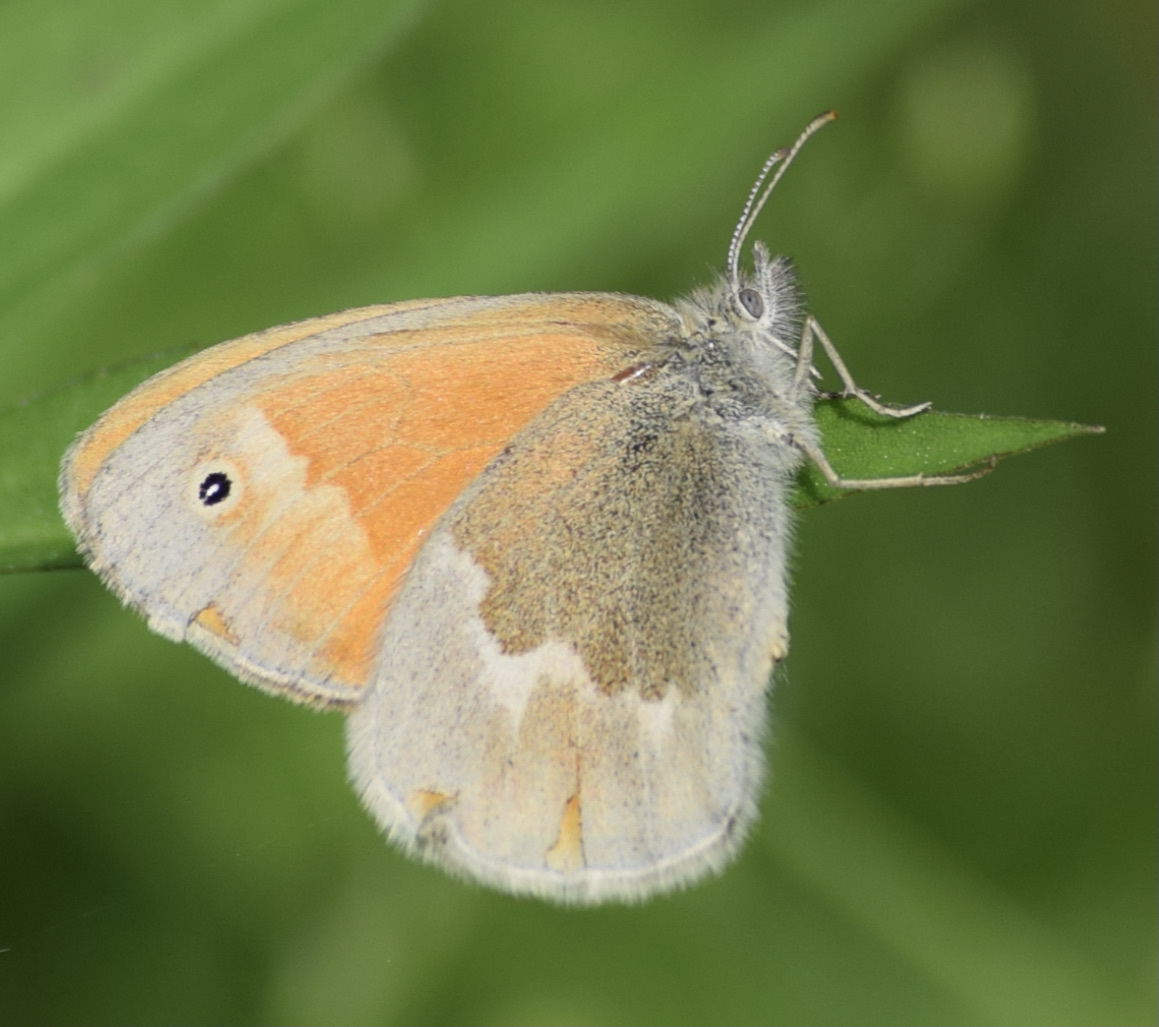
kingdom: Animalia
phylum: Arthropoda
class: Insecta
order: Lepidoptera
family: Nymphalidae
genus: Coenonympha
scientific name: Coenonympha california
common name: Common ringlet
